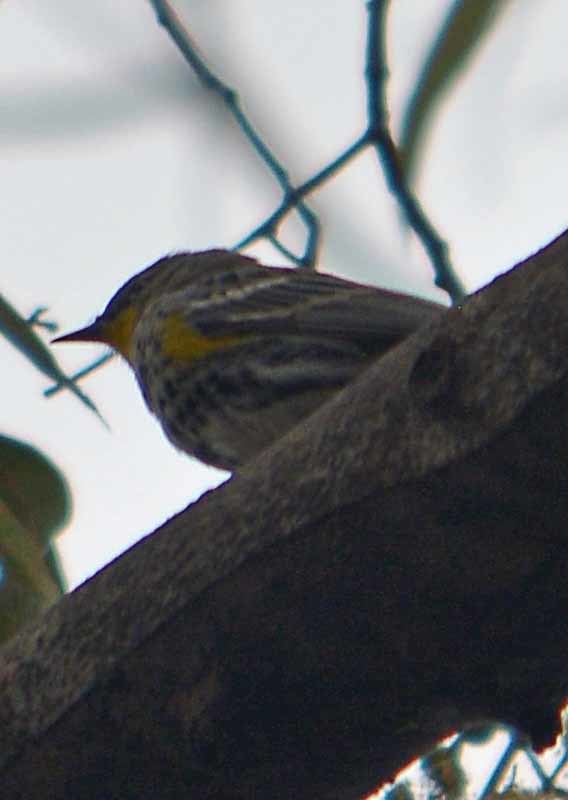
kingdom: Animalia
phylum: Chordata
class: Aves
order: Passeriformes
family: Parulidae
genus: Setophaga
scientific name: Setophaga coronata
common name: Myrtle warbler
